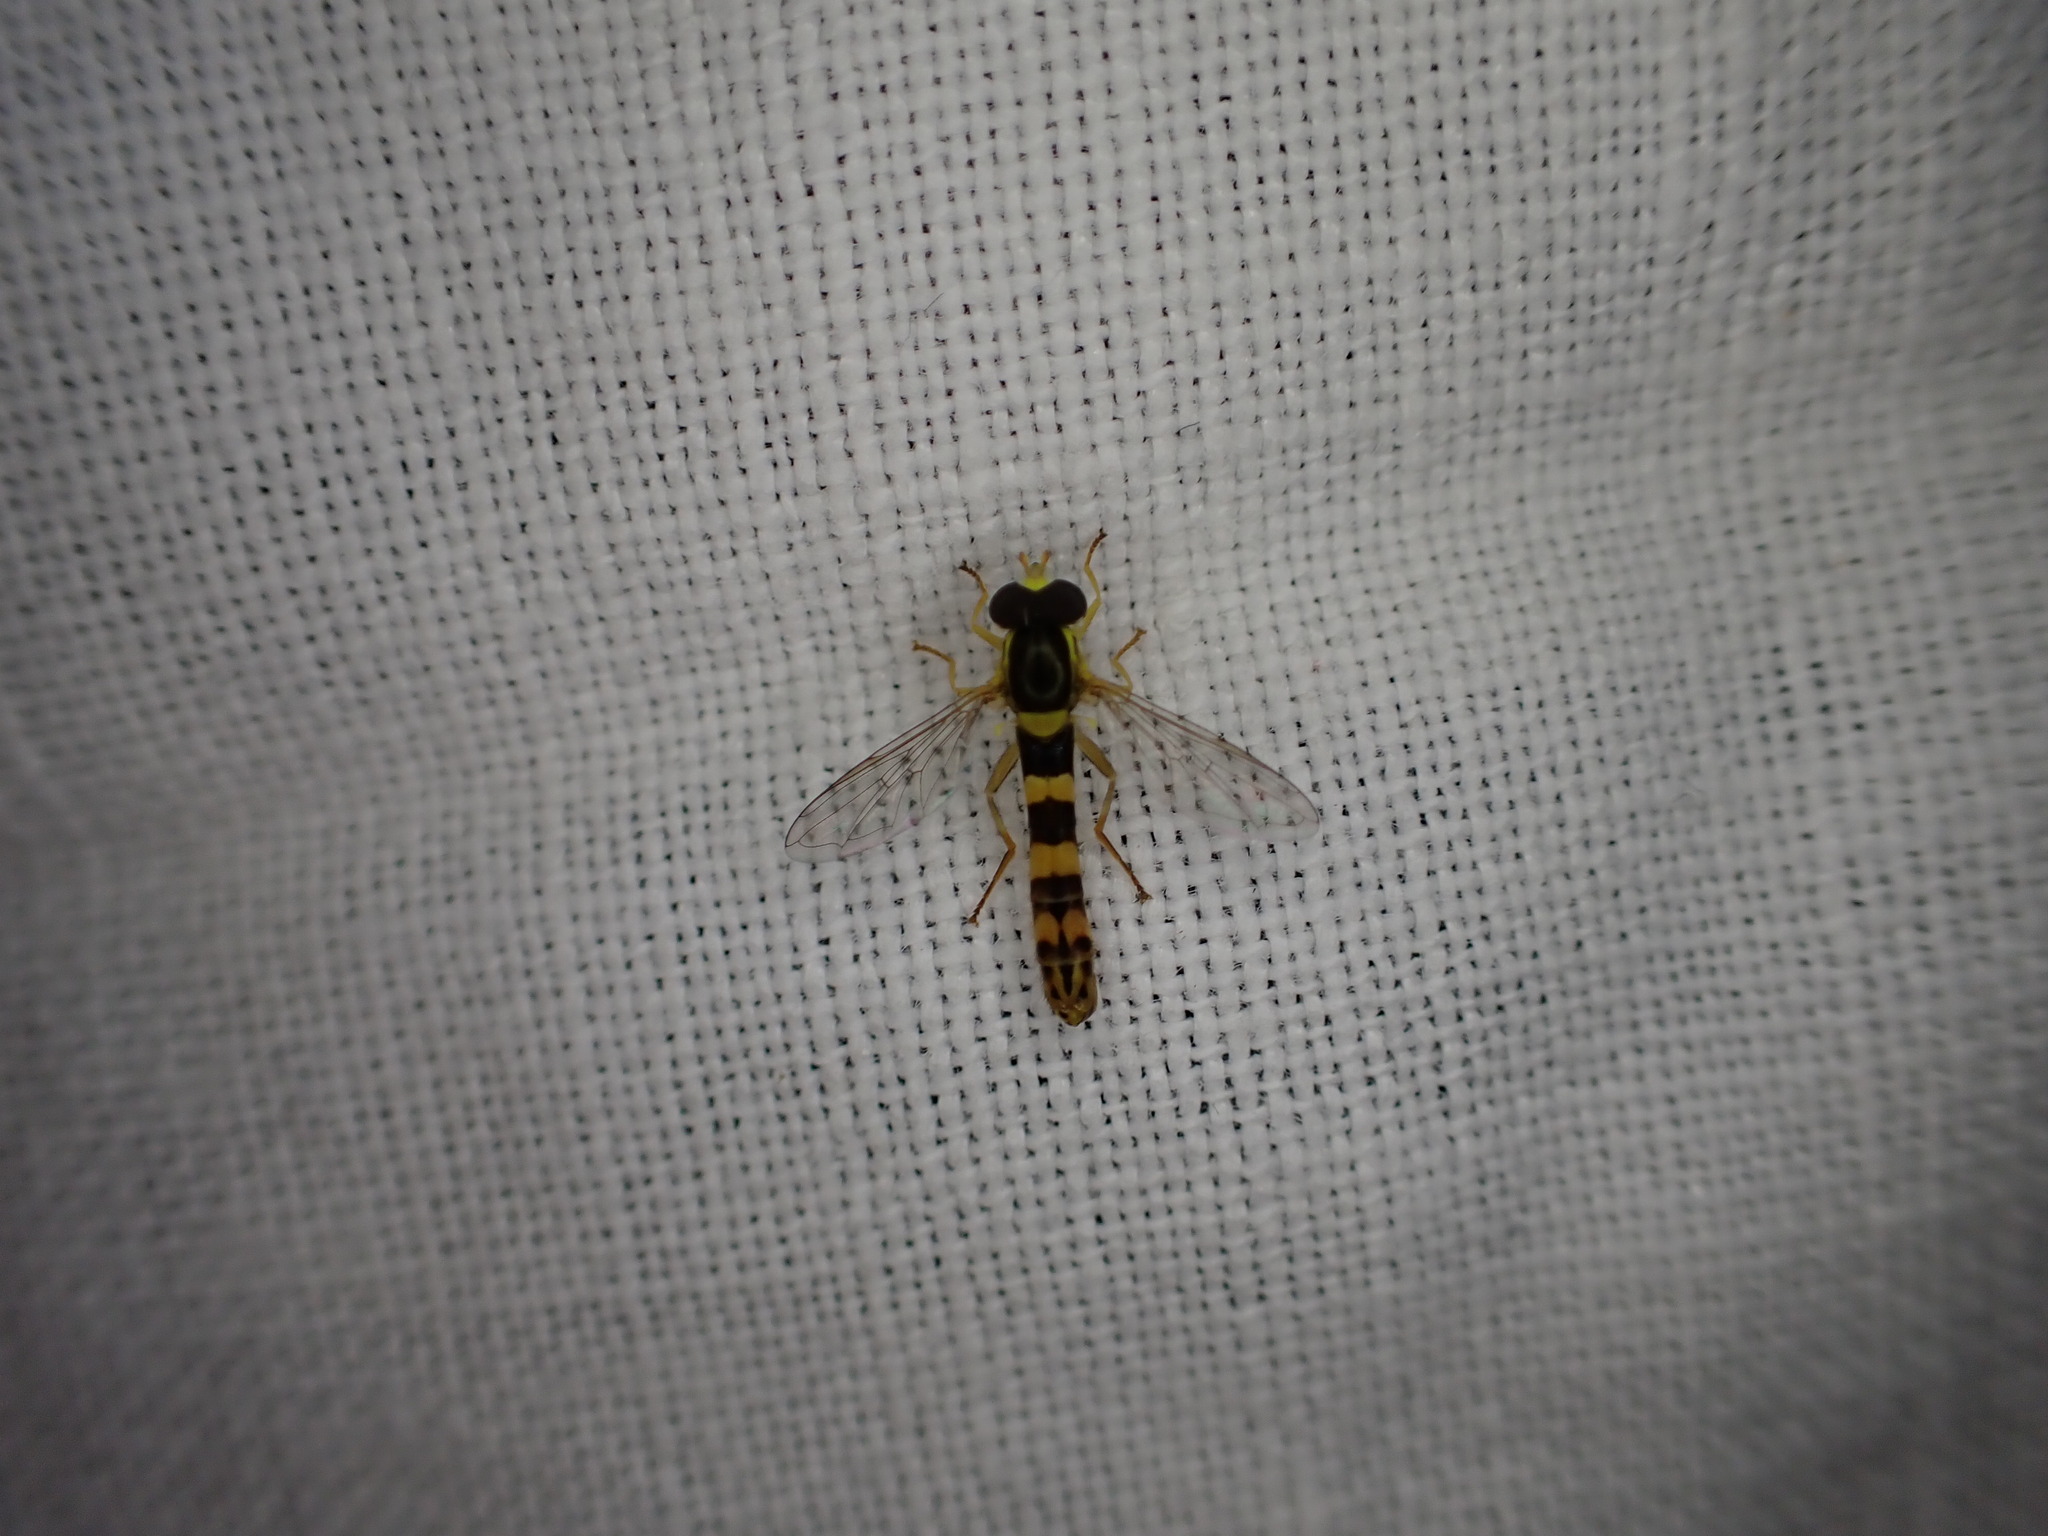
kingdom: Animalia
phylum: Arthropoda
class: Insecta
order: Diptera
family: Syrphidae
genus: Sphaerophoria
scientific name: Sphaerophoria scripta
